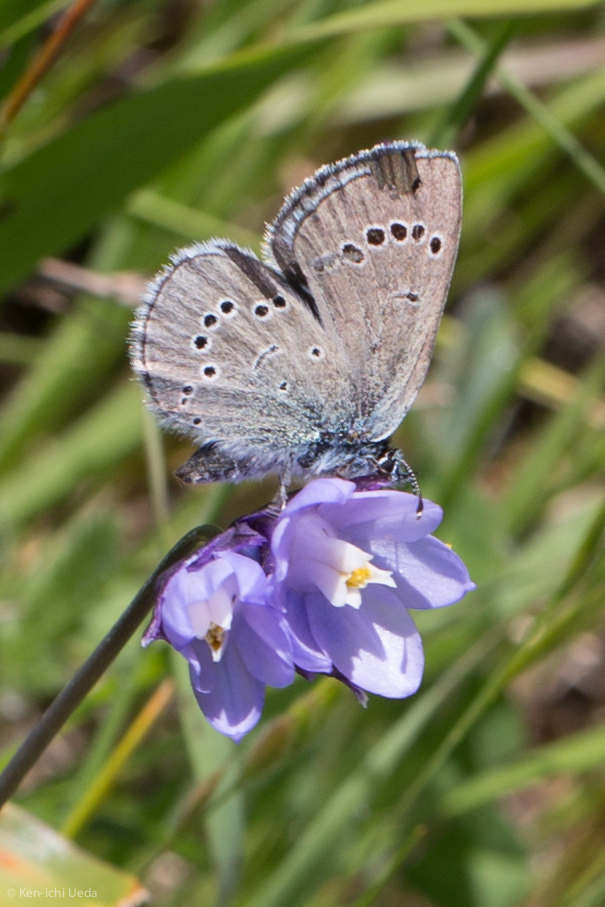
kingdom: Animalia
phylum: Arthropoda
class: Insecta
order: Lepidoptera
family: Lycaenidae
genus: Glaucopsyche
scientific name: Glaucopsyche lygdamus
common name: Silvery blue
